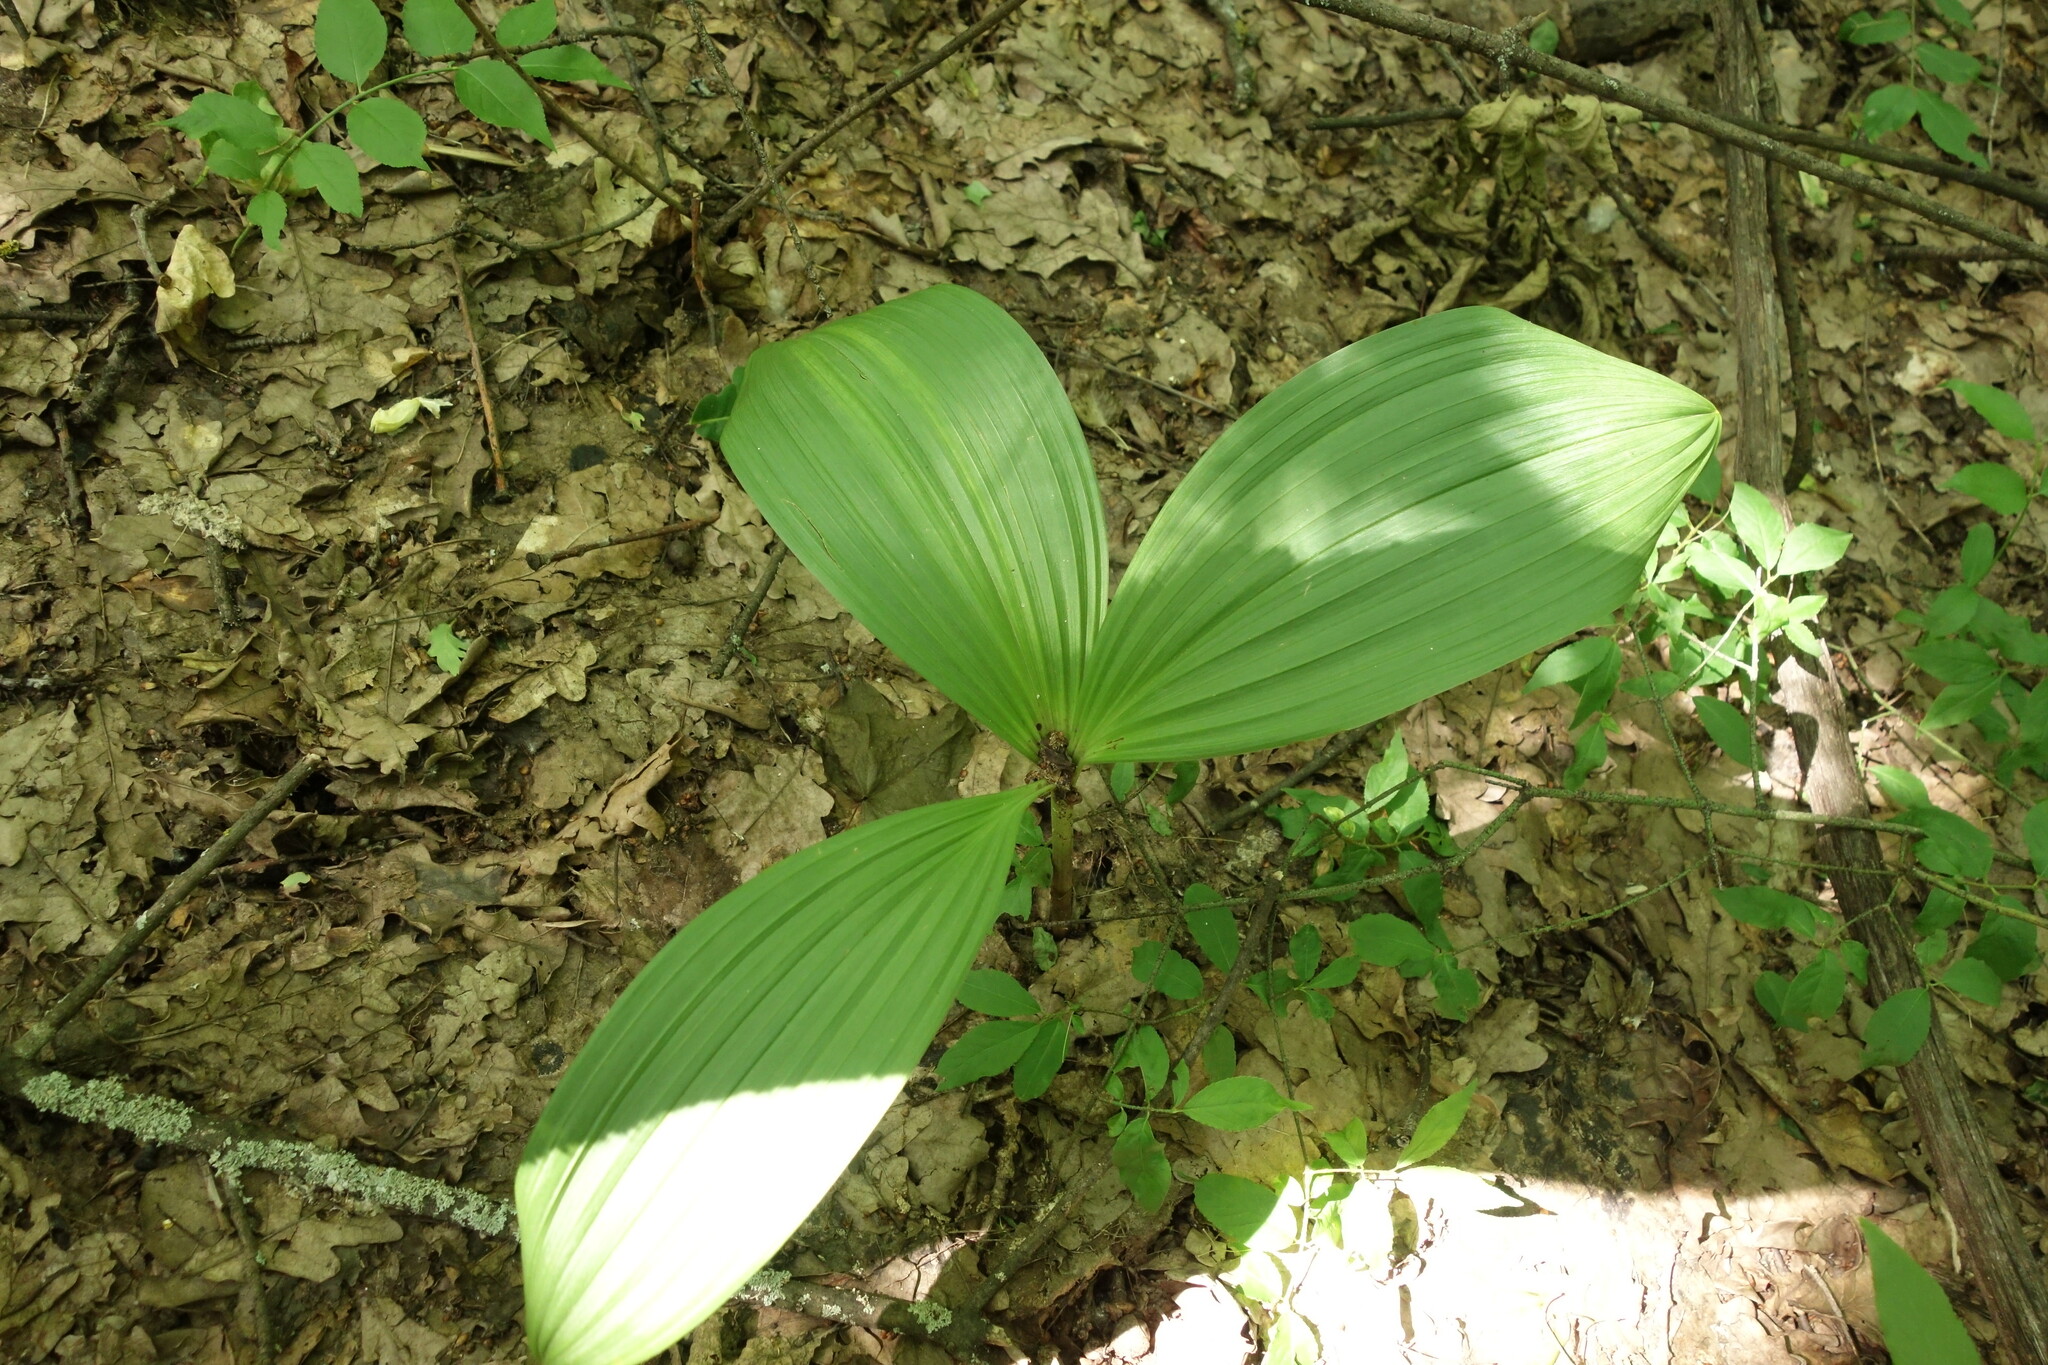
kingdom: Plantae
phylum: Tracheophyta
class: Liliopsida
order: Liliales
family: Melanthiaceae
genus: Veratrum
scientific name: Veratrum nigrum
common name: Black veratrum
